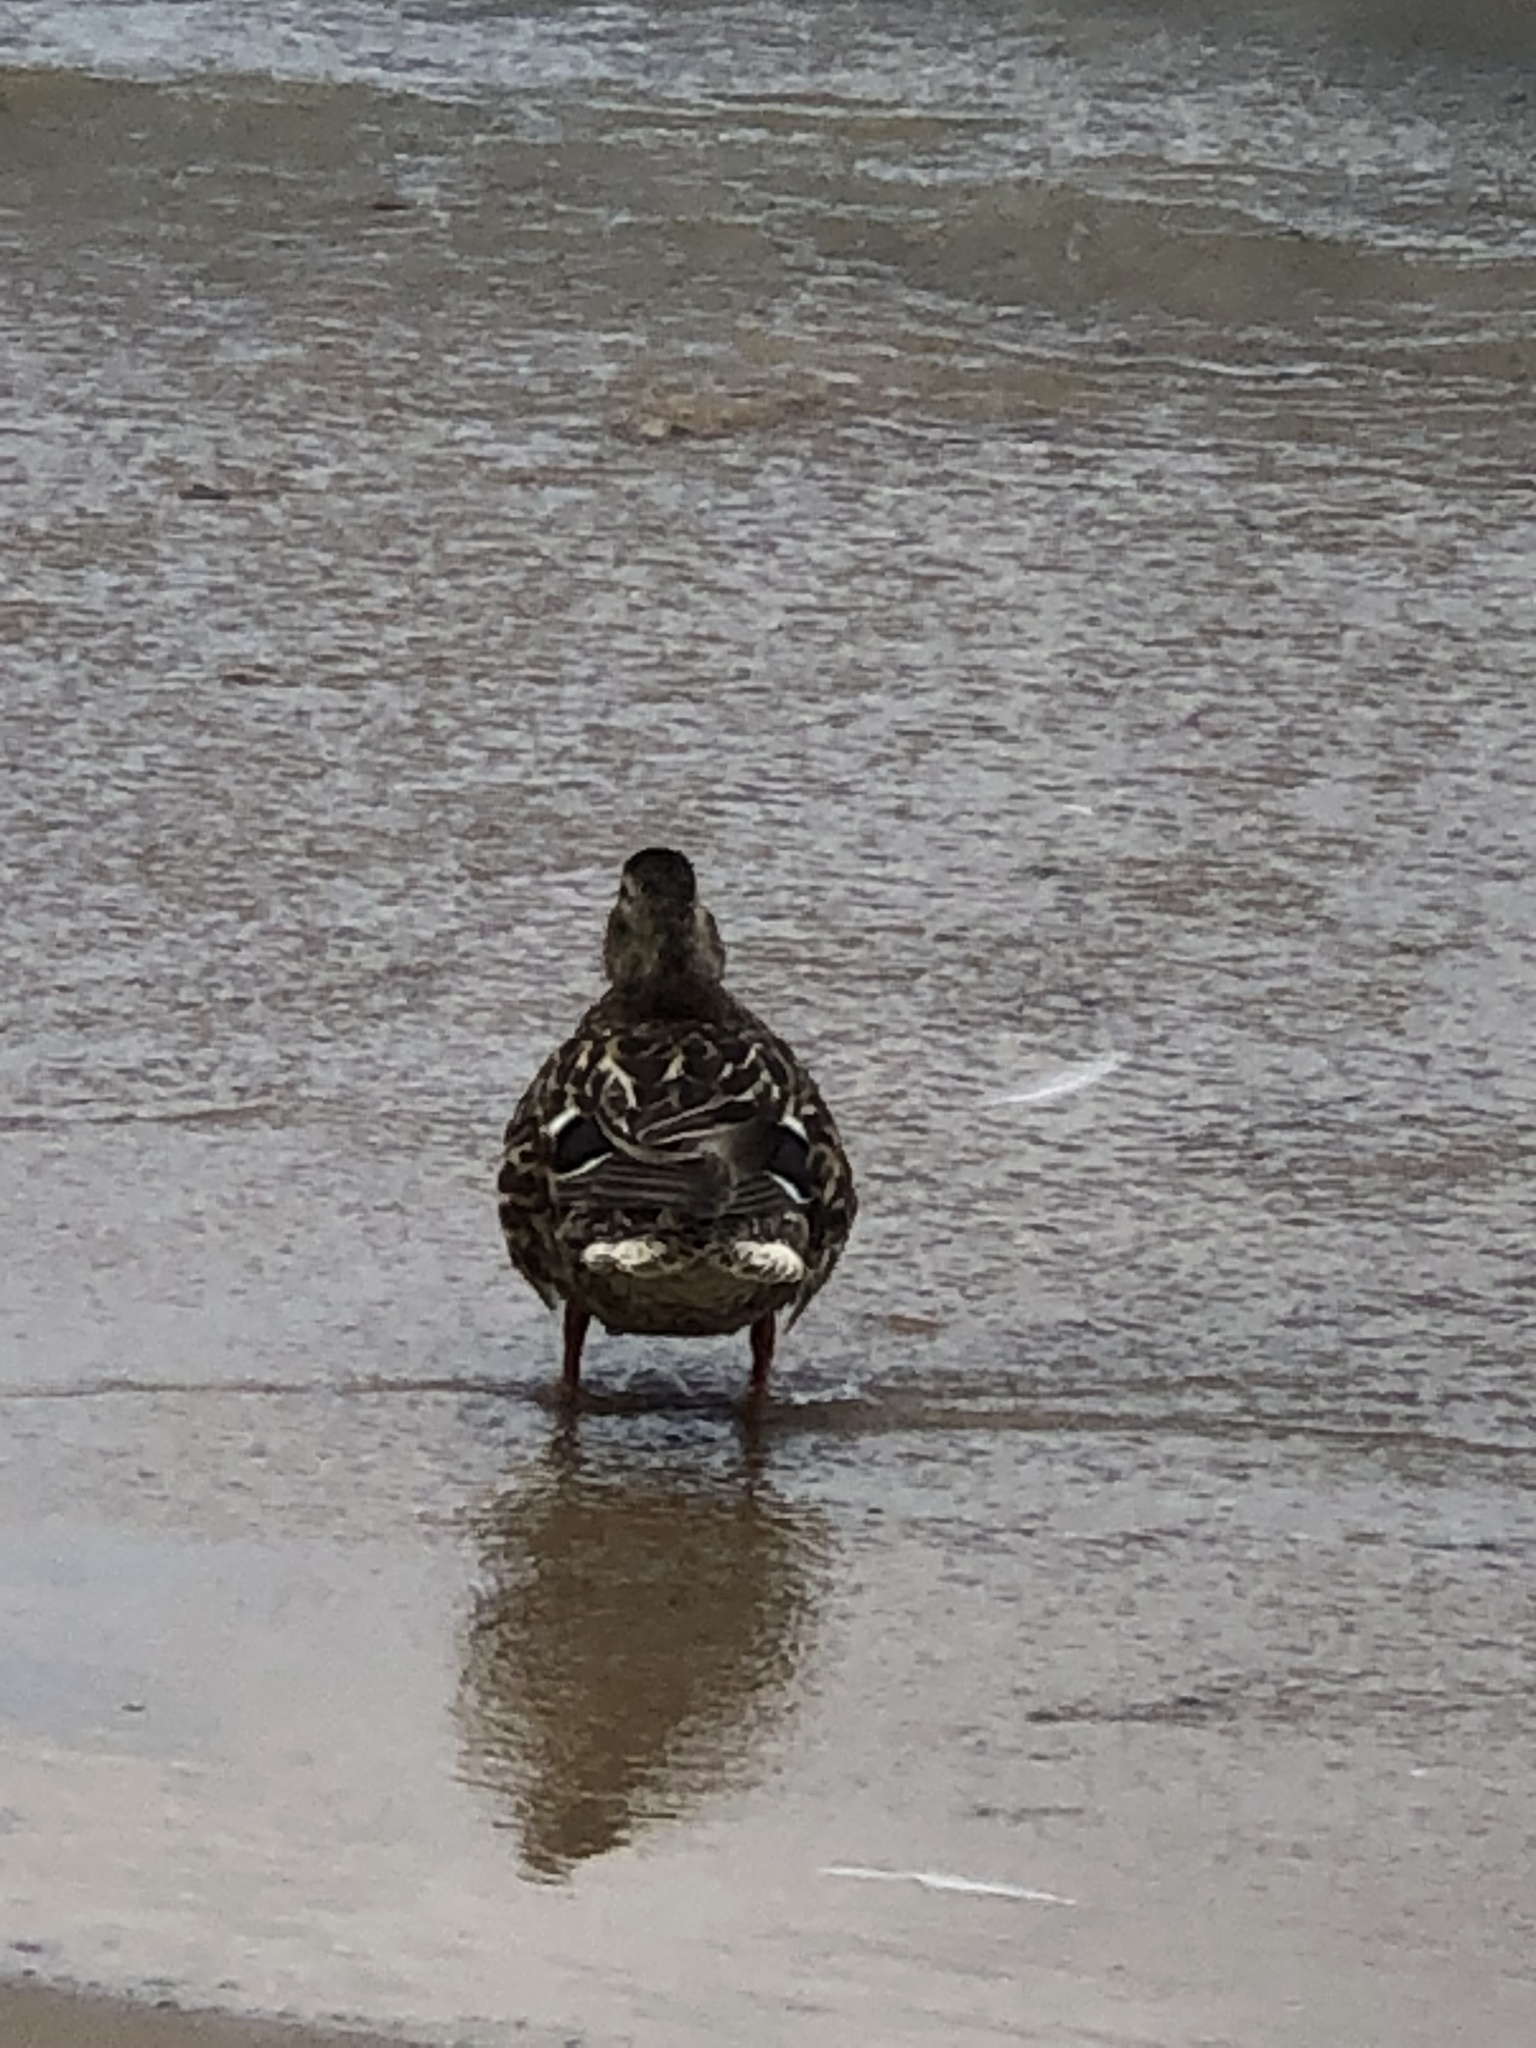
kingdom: Animalia
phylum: Chordata
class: Aves
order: Anseriformes
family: Anatidae
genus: Anas
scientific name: Anas platyrhynchos
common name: Mallard
